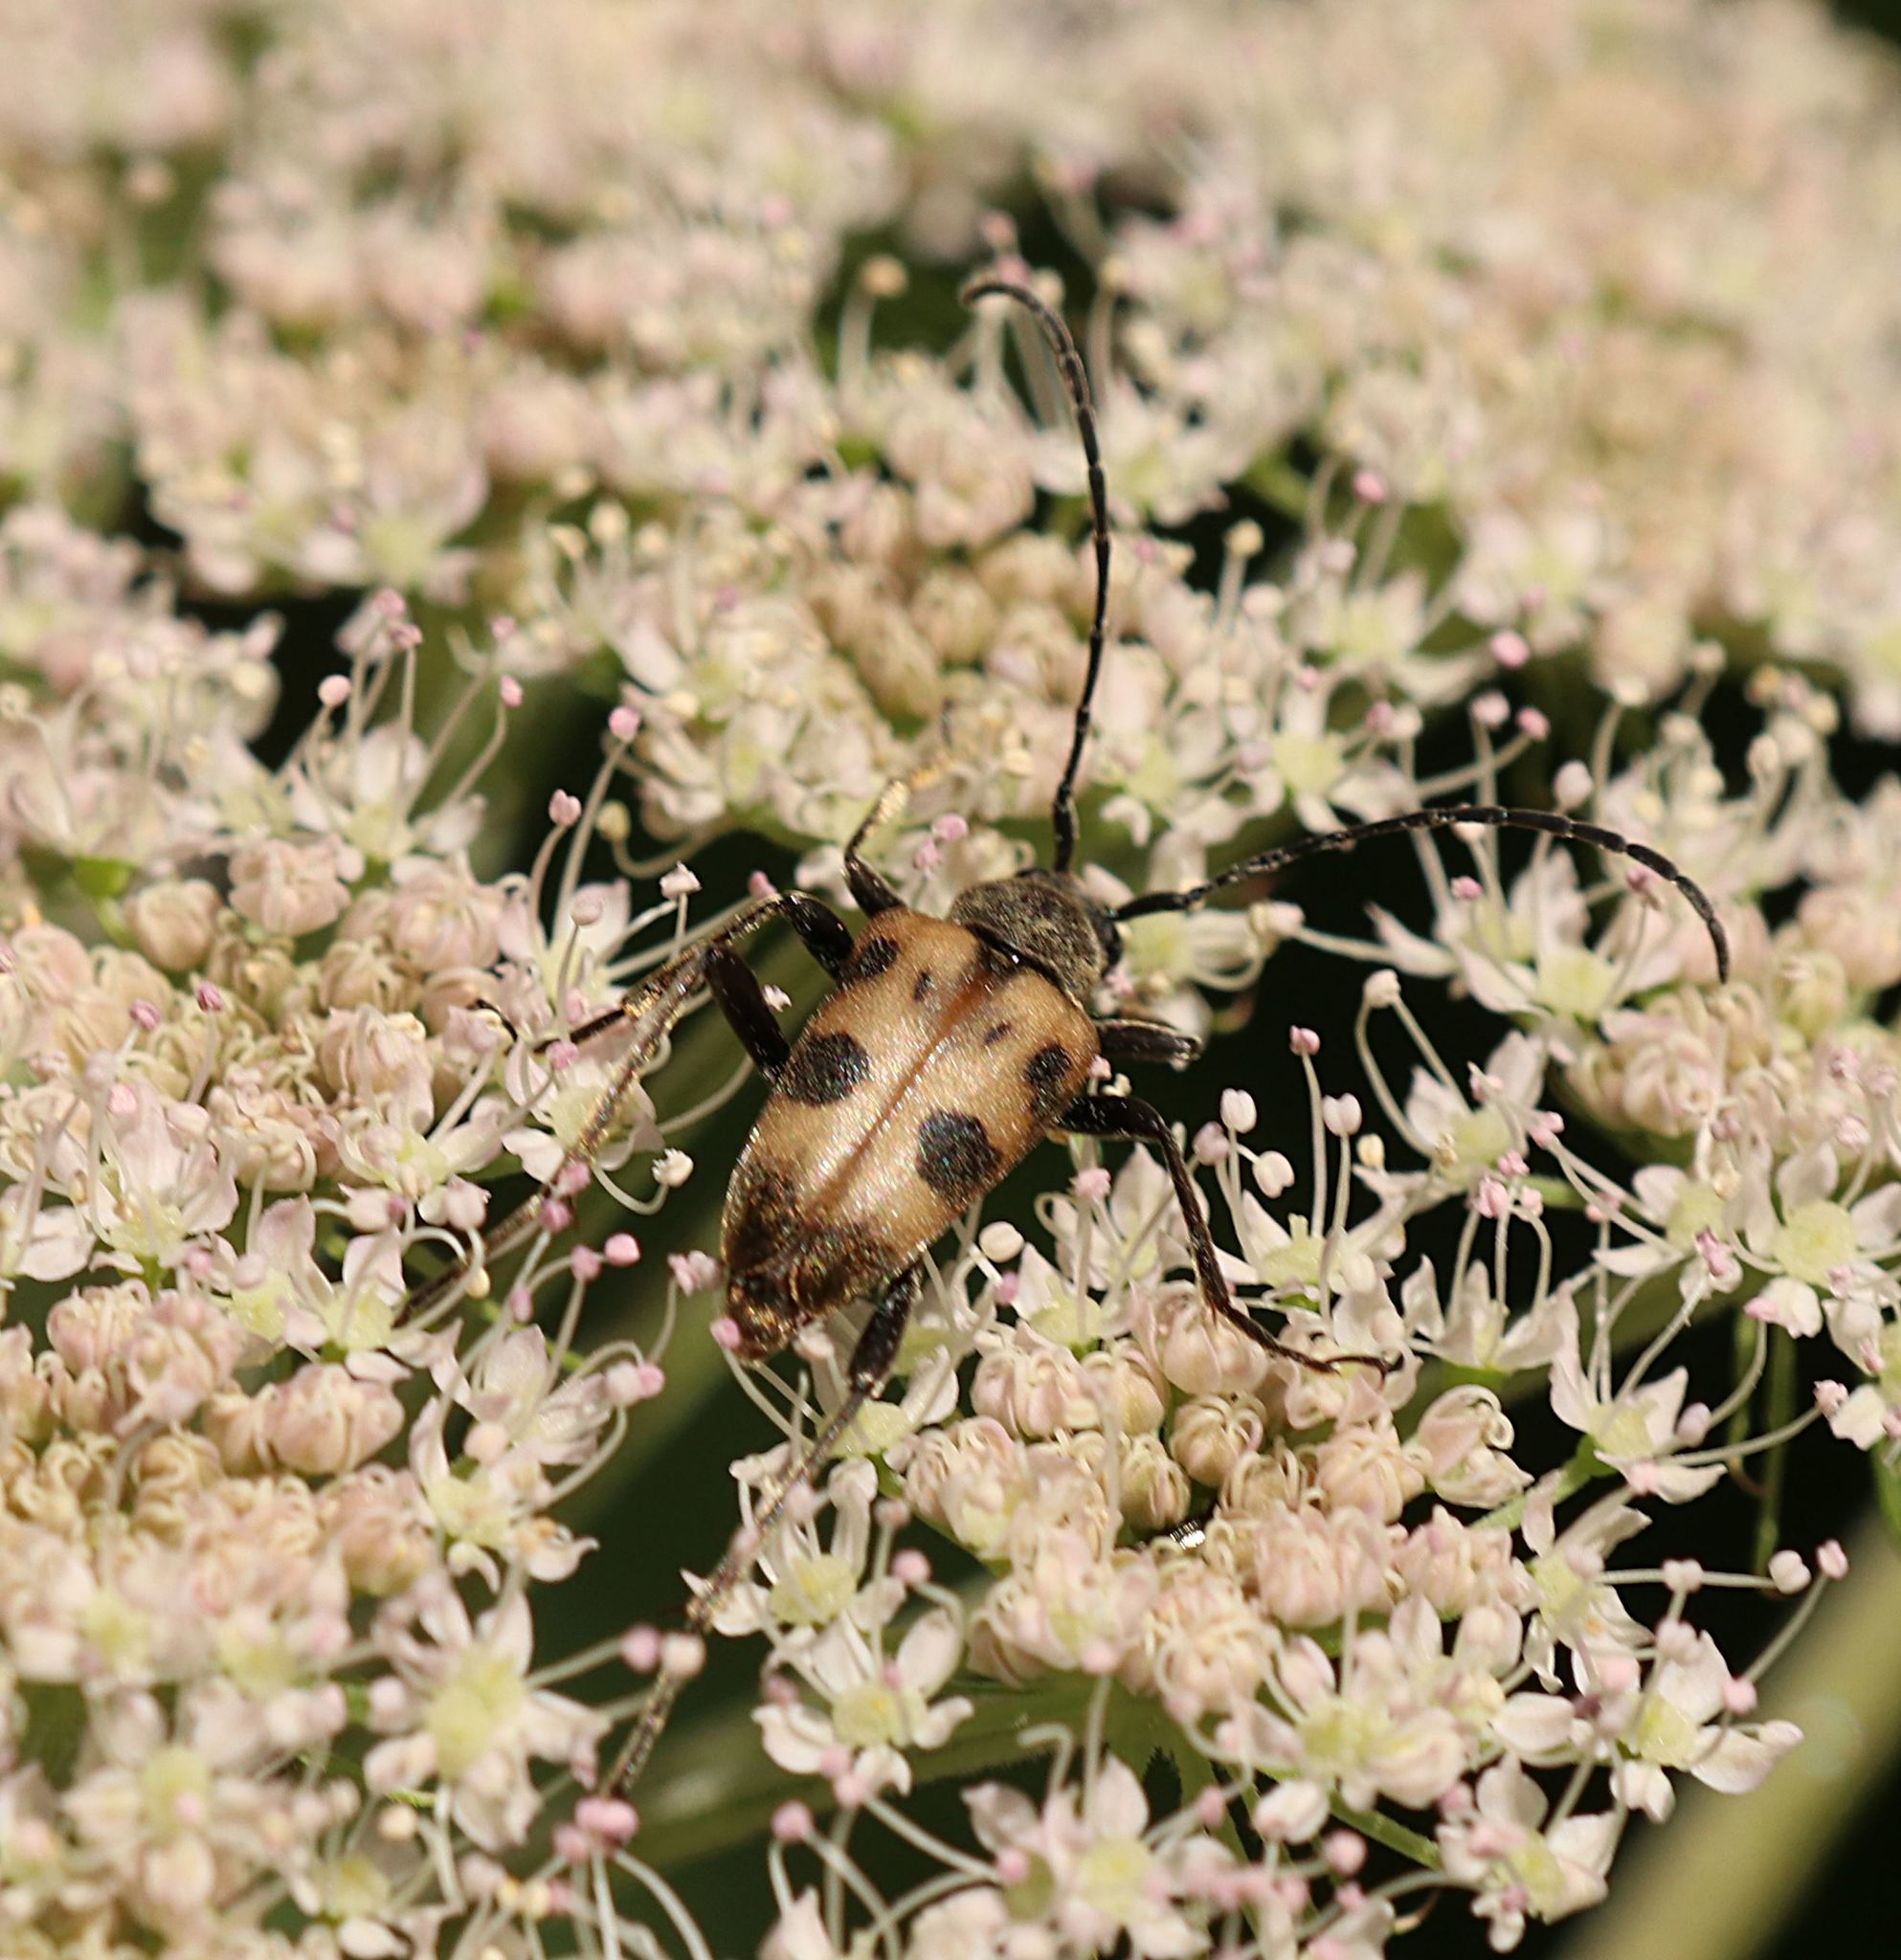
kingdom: Animalia
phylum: Arthropoda
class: Insecta
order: Coleoptera
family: Cerambycidae
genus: Pachytodes
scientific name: Pachytodes cerambyciformis
